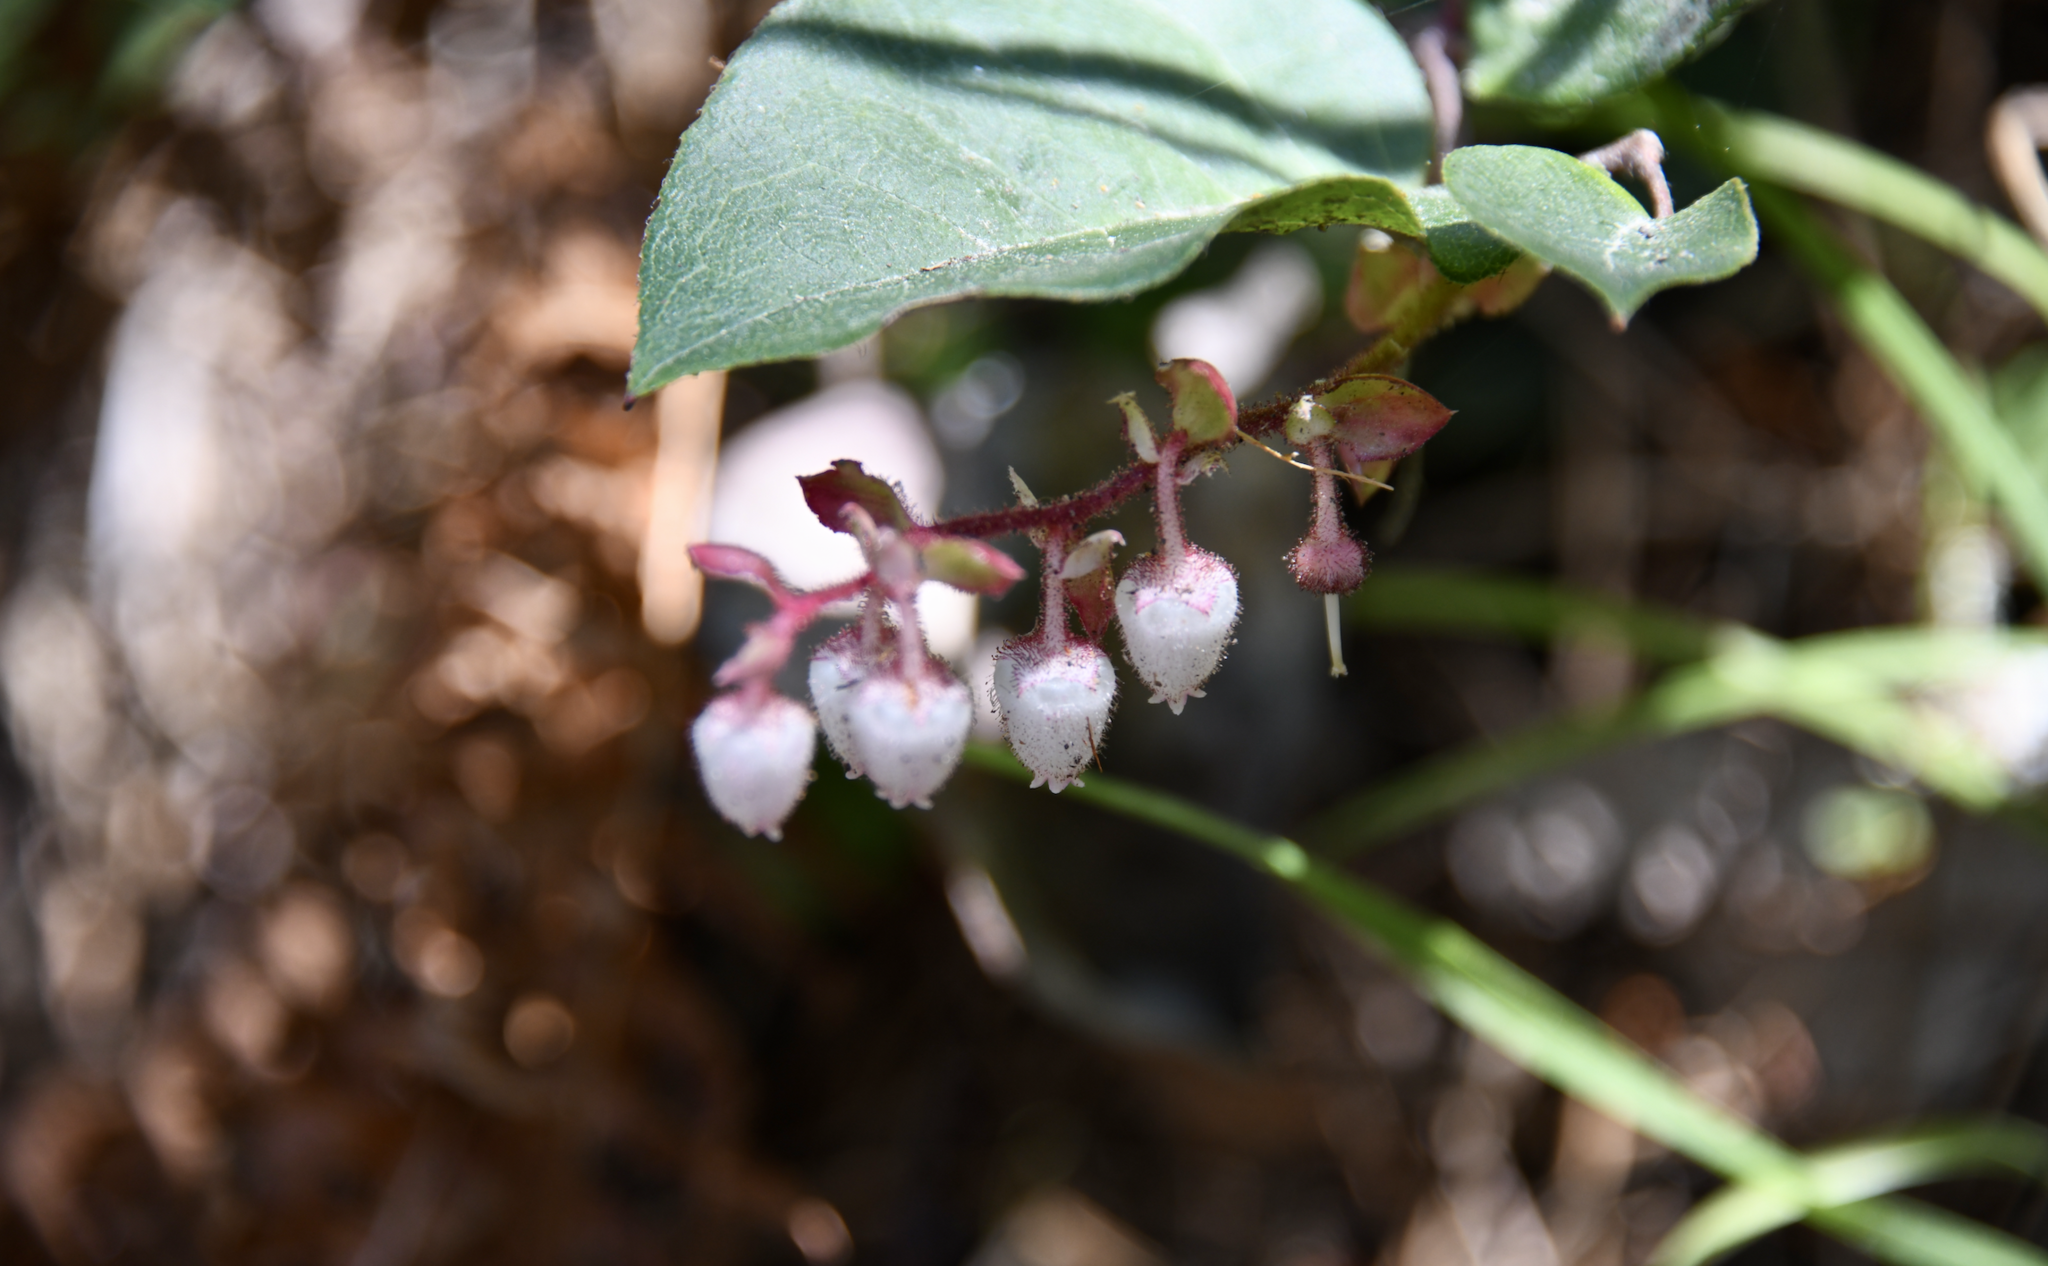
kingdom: Plantae
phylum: Tracheophyta
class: Magnoliopsida
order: Ericales
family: Ericaceae
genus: Gaultheria
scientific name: Gaultheria shallon
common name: Shallon
